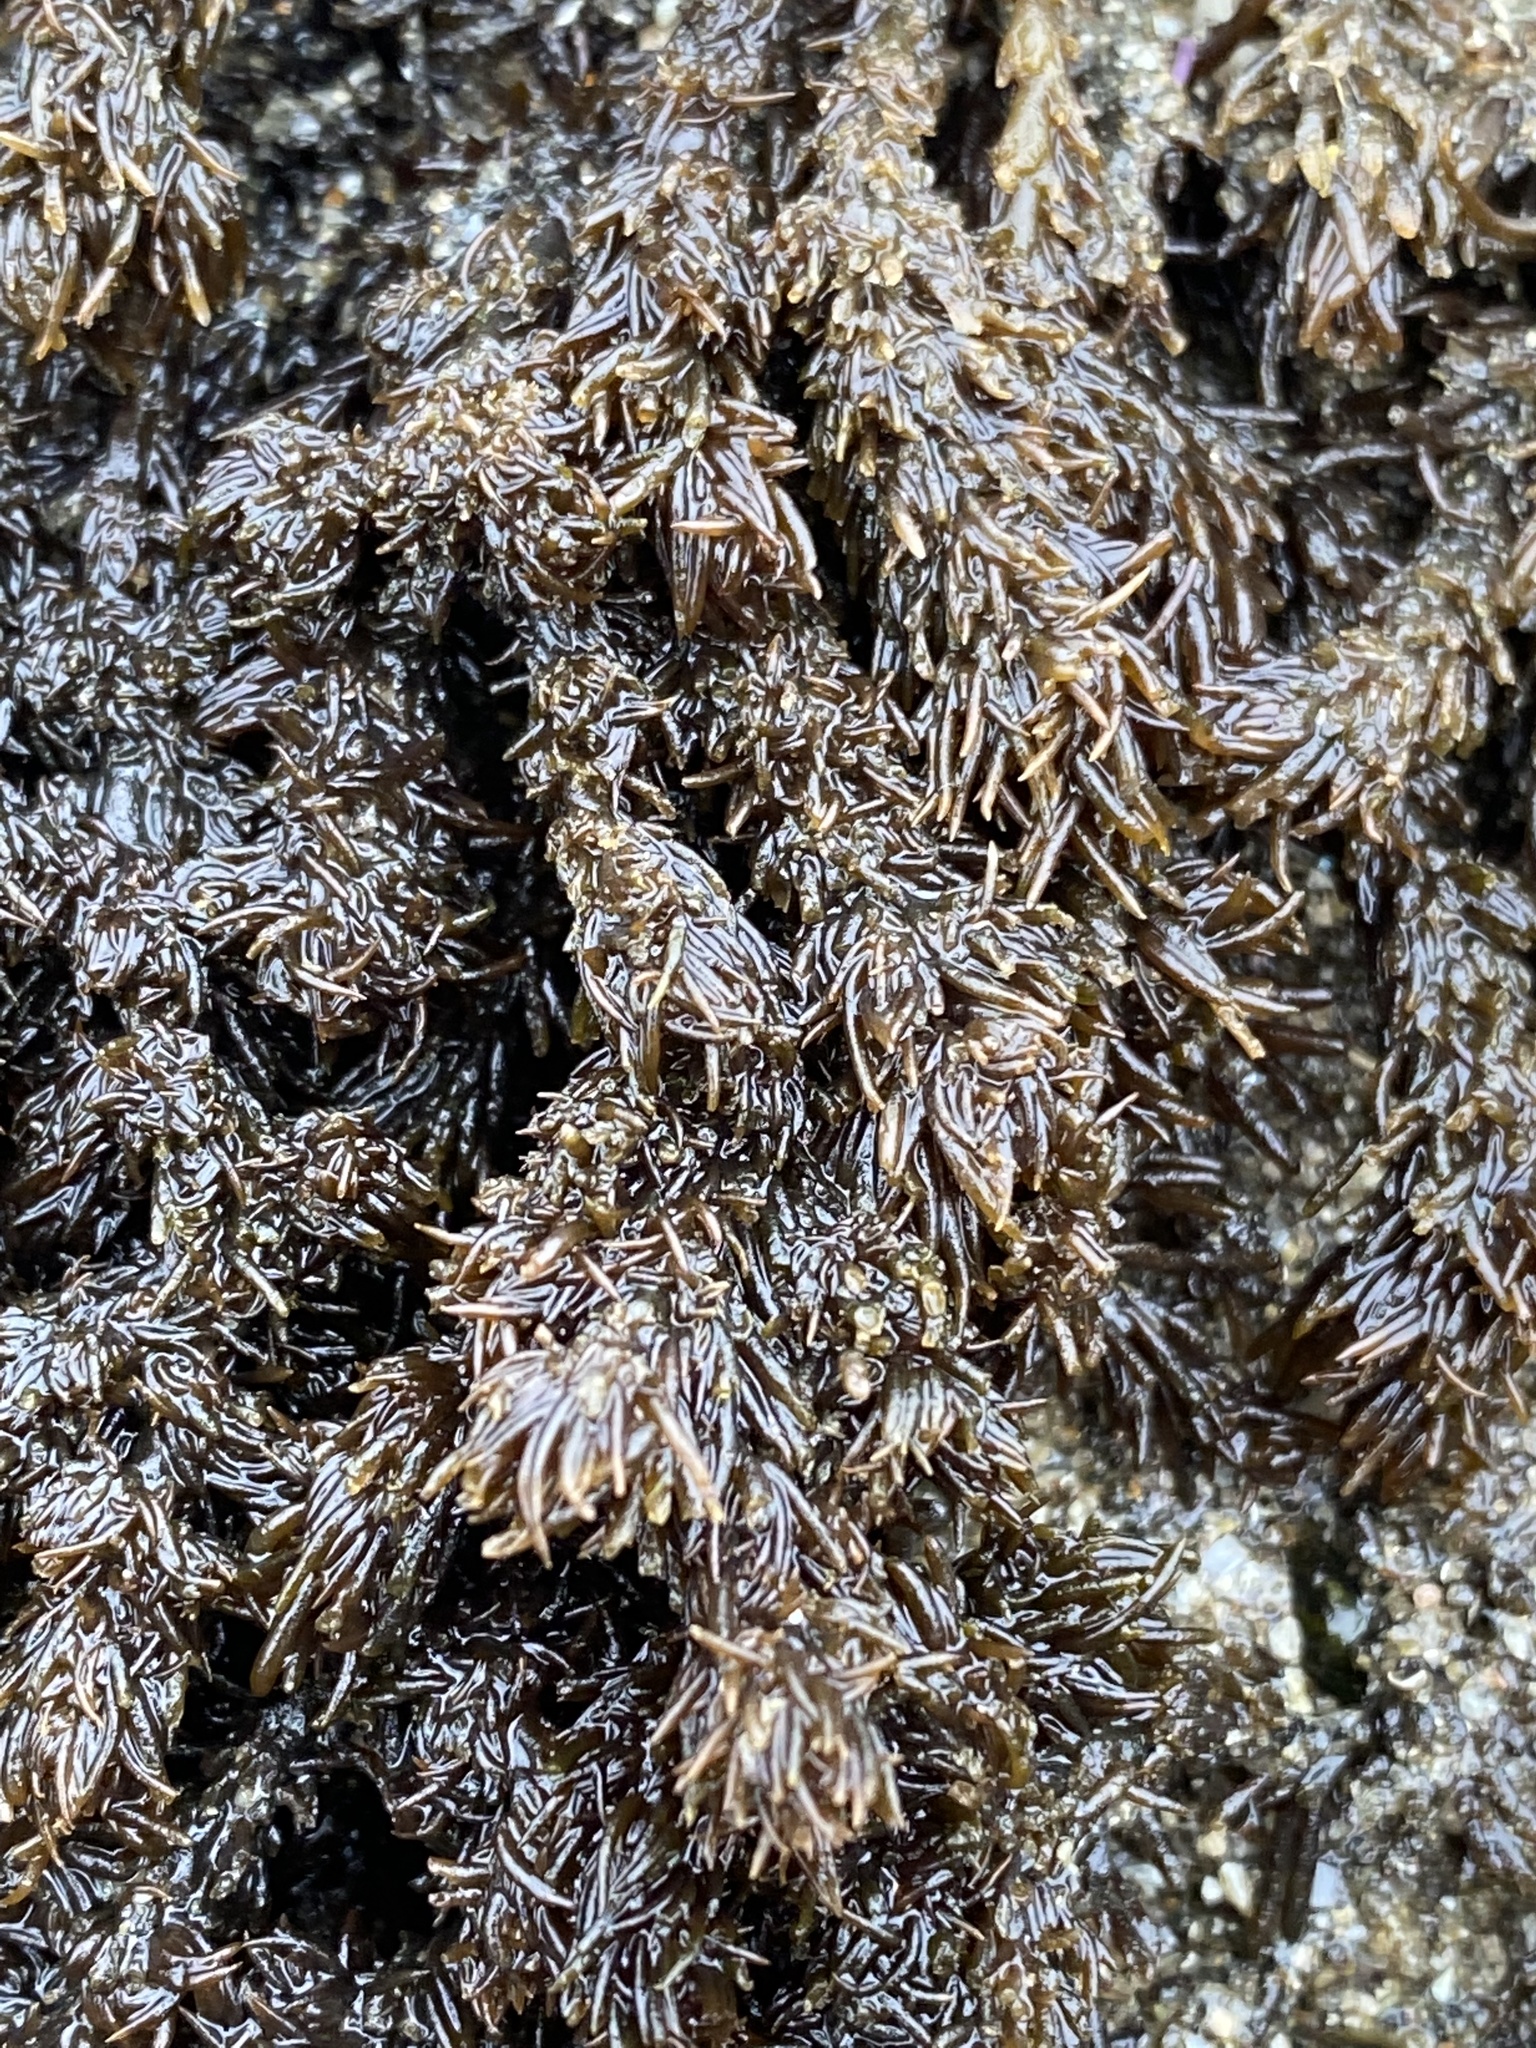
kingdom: Plantae
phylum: Rhodophyta
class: Florideophyceae
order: Ceramiales
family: Rhodomelaceae
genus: Neorhodomela
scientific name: Neorhodomela larix
